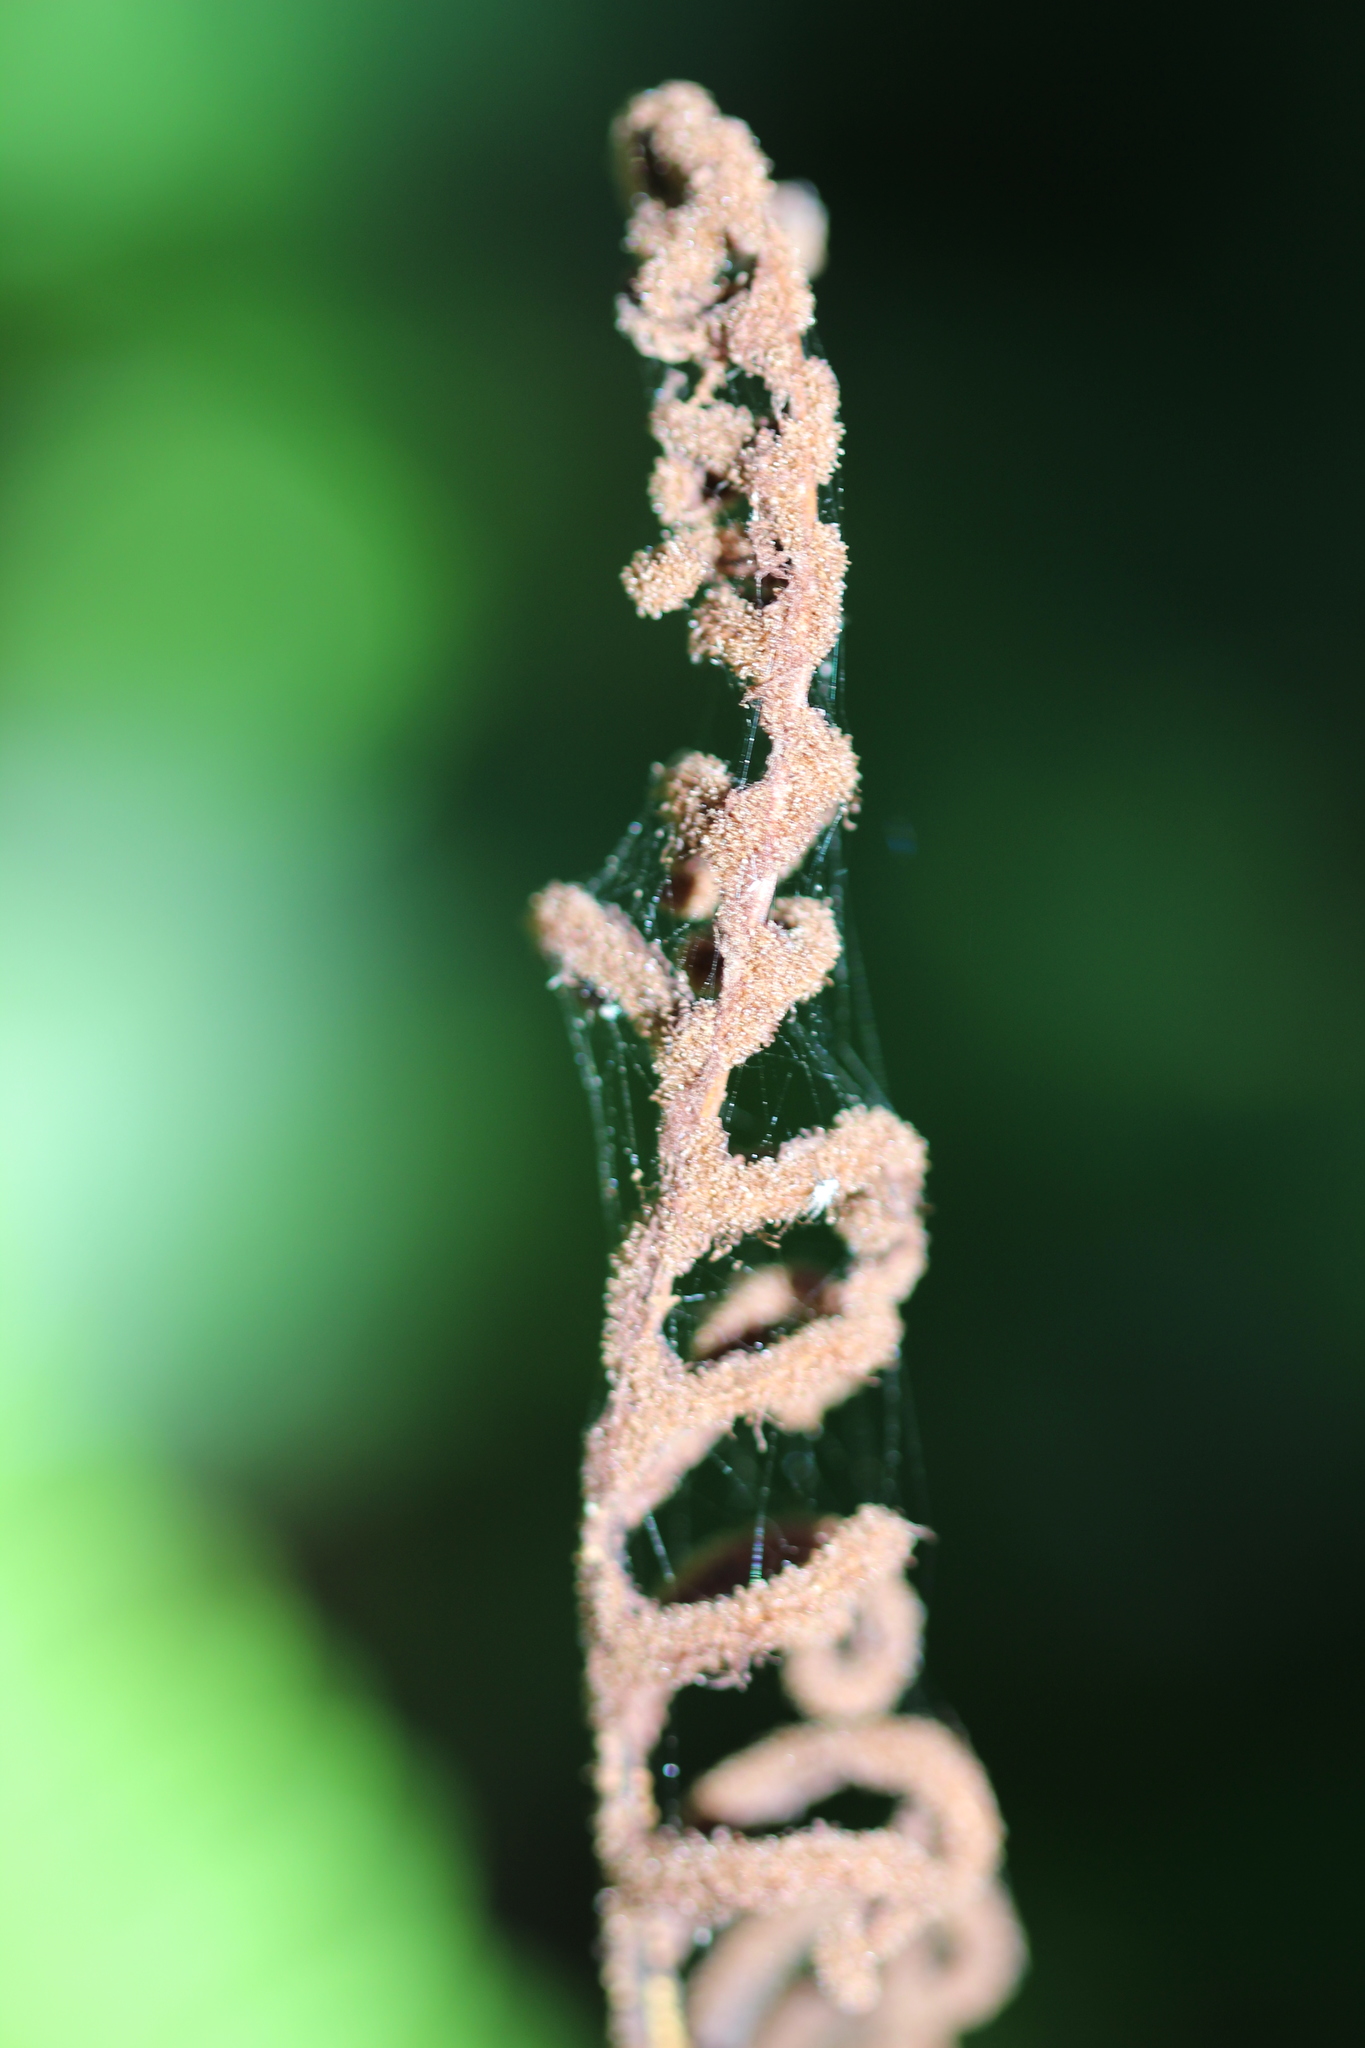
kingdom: Plantae
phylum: Tracheophyta
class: Polypodiopsida
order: Polypodiales
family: Blechnaceae
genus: Lomaria
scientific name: Lomaria discolor
